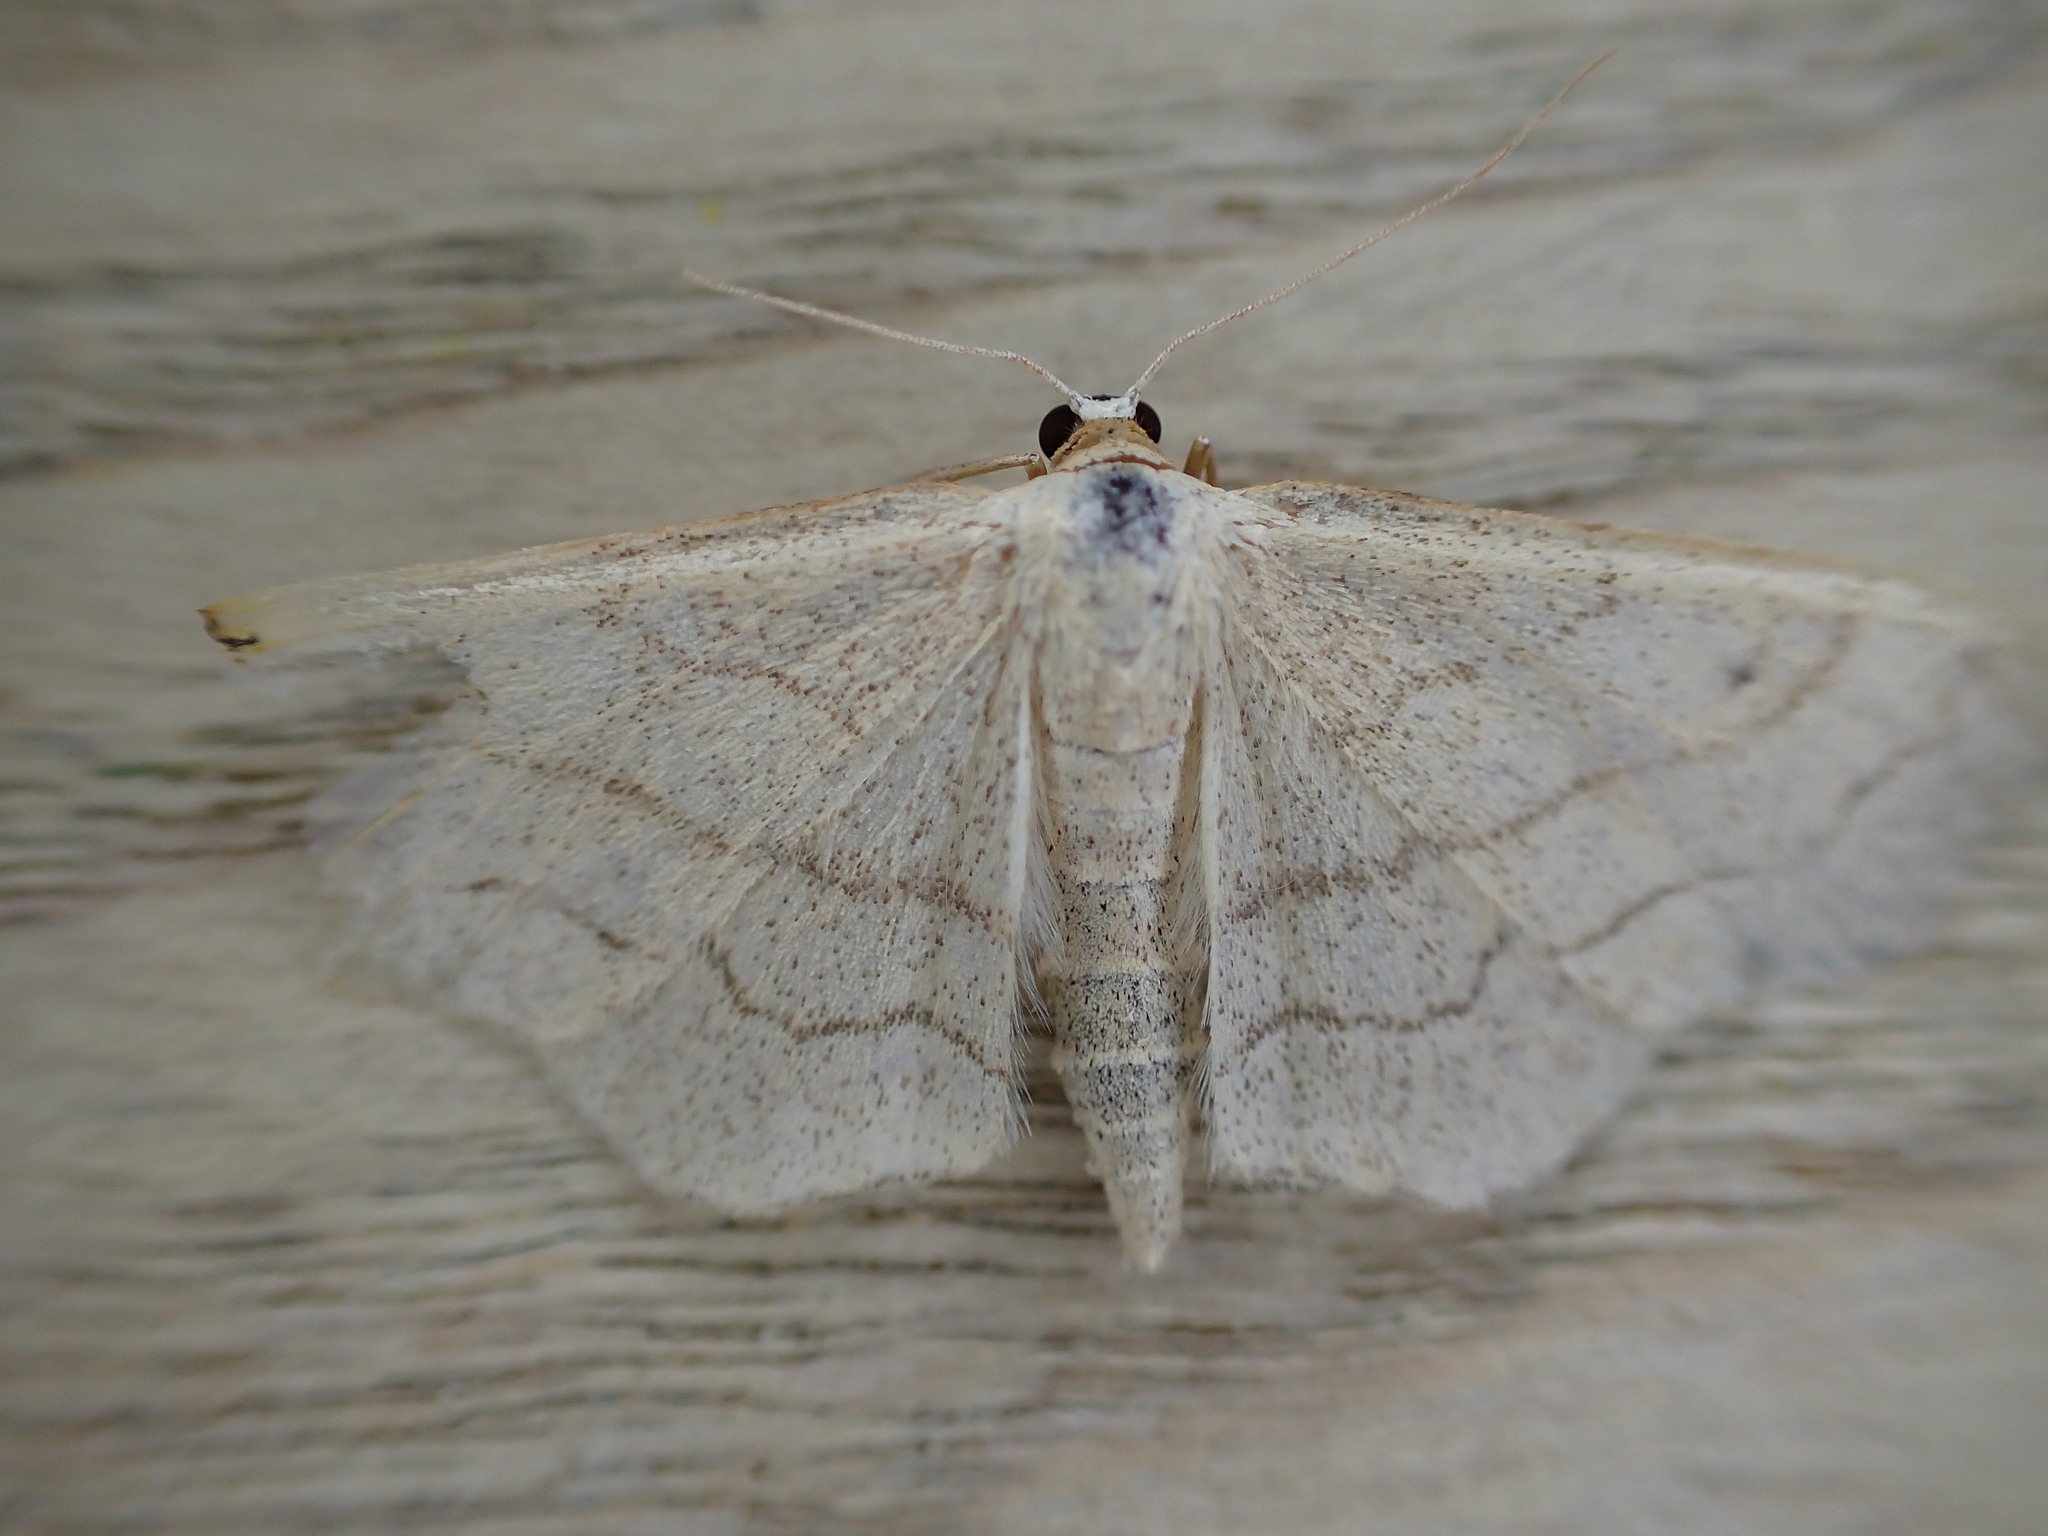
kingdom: Animalia
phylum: Arthropoda
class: Insecta
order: Lepidoptera
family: Geometridae
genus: Idaea
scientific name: Idaea aversata
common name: Riband wave
